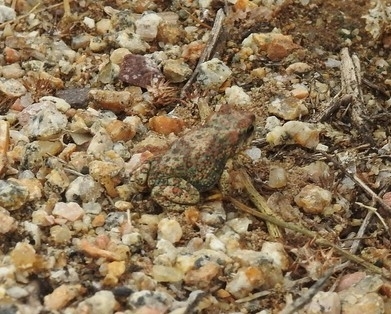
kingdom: Animalia
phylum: Chordata
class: Amphibia
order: Anura
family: Bufonidae
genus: Anaxyrus
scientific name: Anaxyrus punctatus
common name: Red-spotted toad
